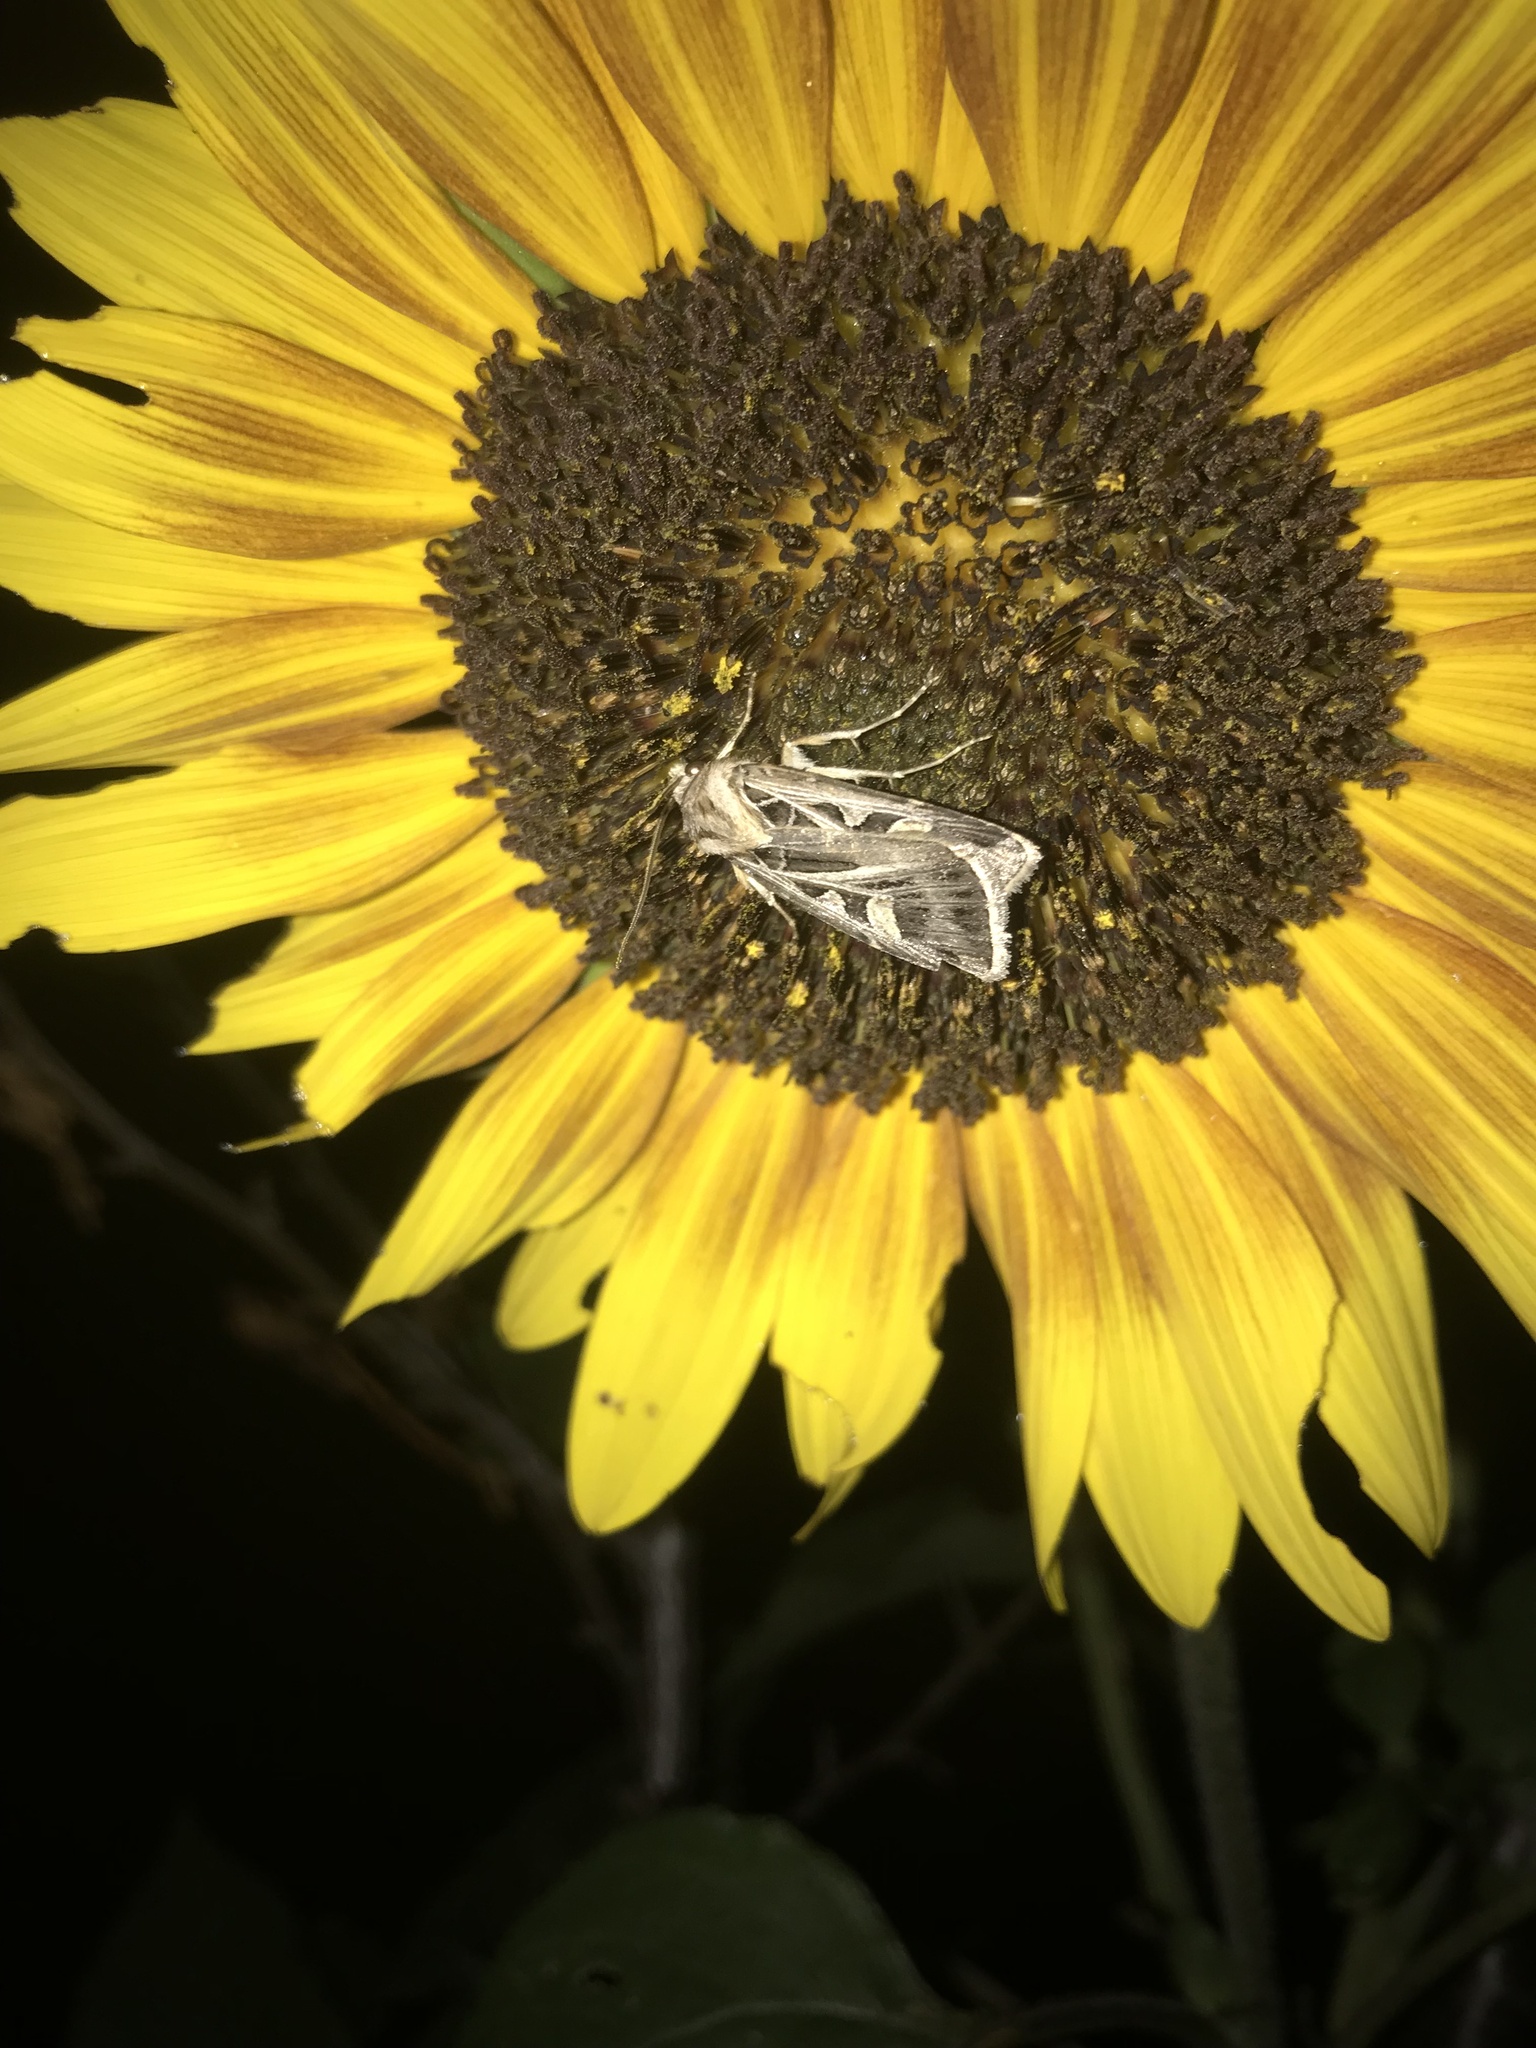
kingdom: Animalia
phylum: Arthropoda
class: Insecta
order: Lepidoptera
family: Noctuidae
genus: Feltia
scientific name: Feltia jaculifera
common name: Dingy cutworm moth
